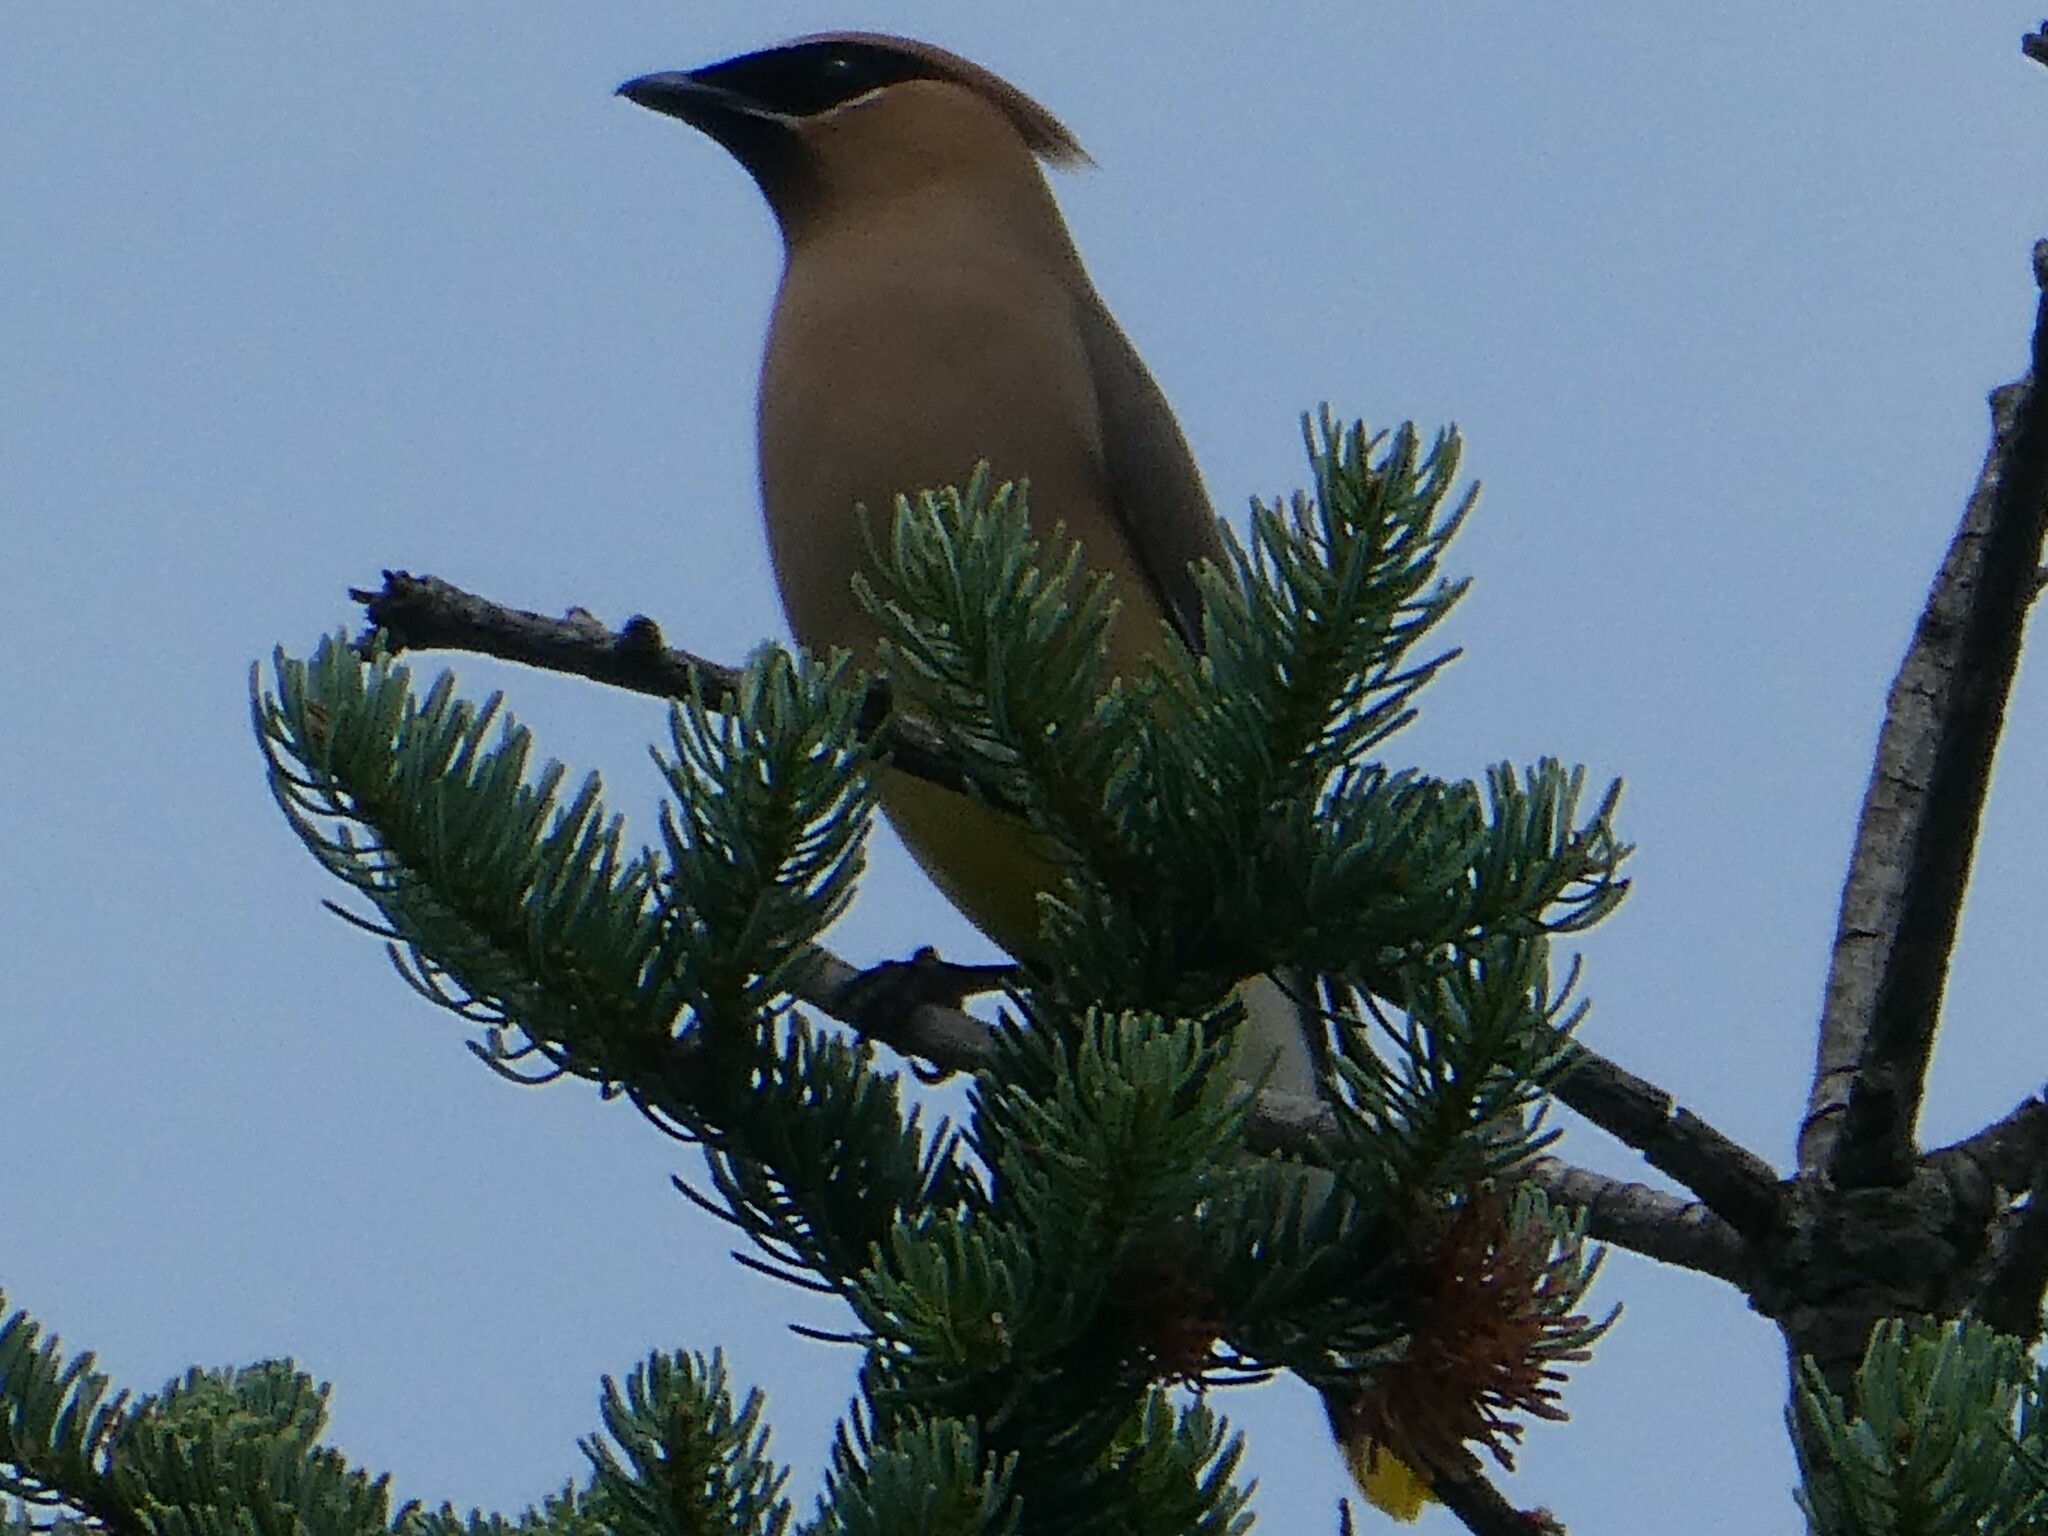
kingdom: Animalia
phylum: Chordata
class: Aves
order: Passeriformes
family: Bombycillidae
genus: Bombycilla
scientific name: Bombycilla cedrorum
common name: Cedar waxwing
